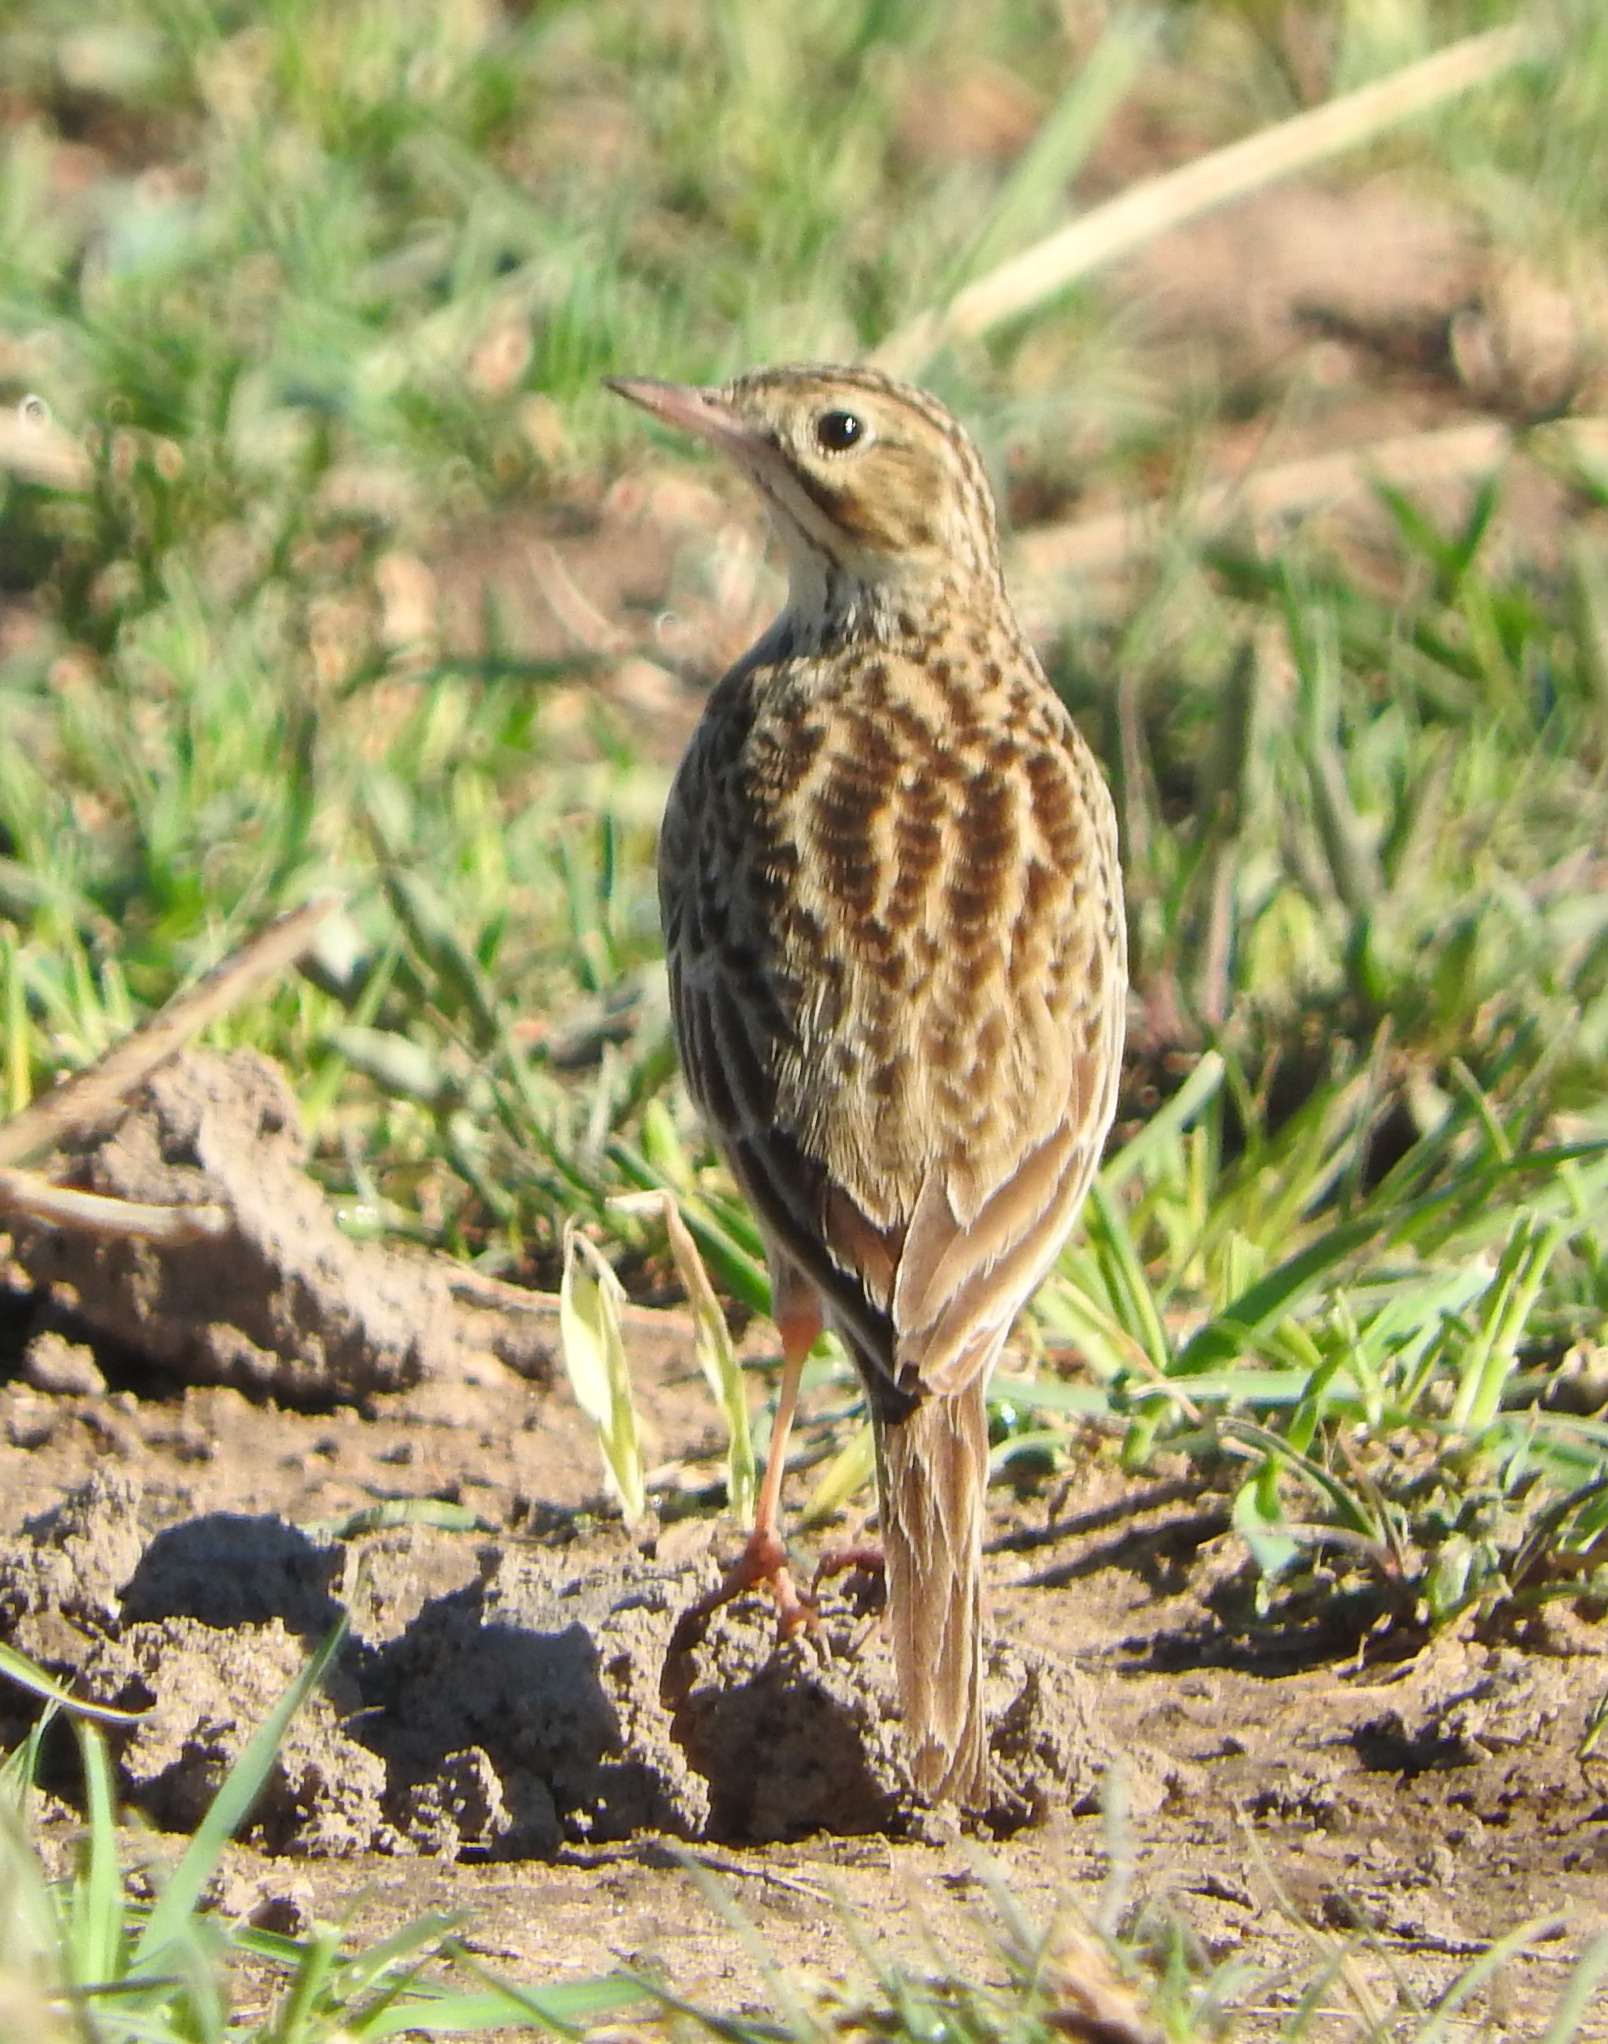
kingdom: Animalia
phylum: Chordata
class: Aves
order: Passeriformes
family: Motacillidae
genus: Anthus
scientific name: Anthus furcatus
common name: Short-billed pipit
